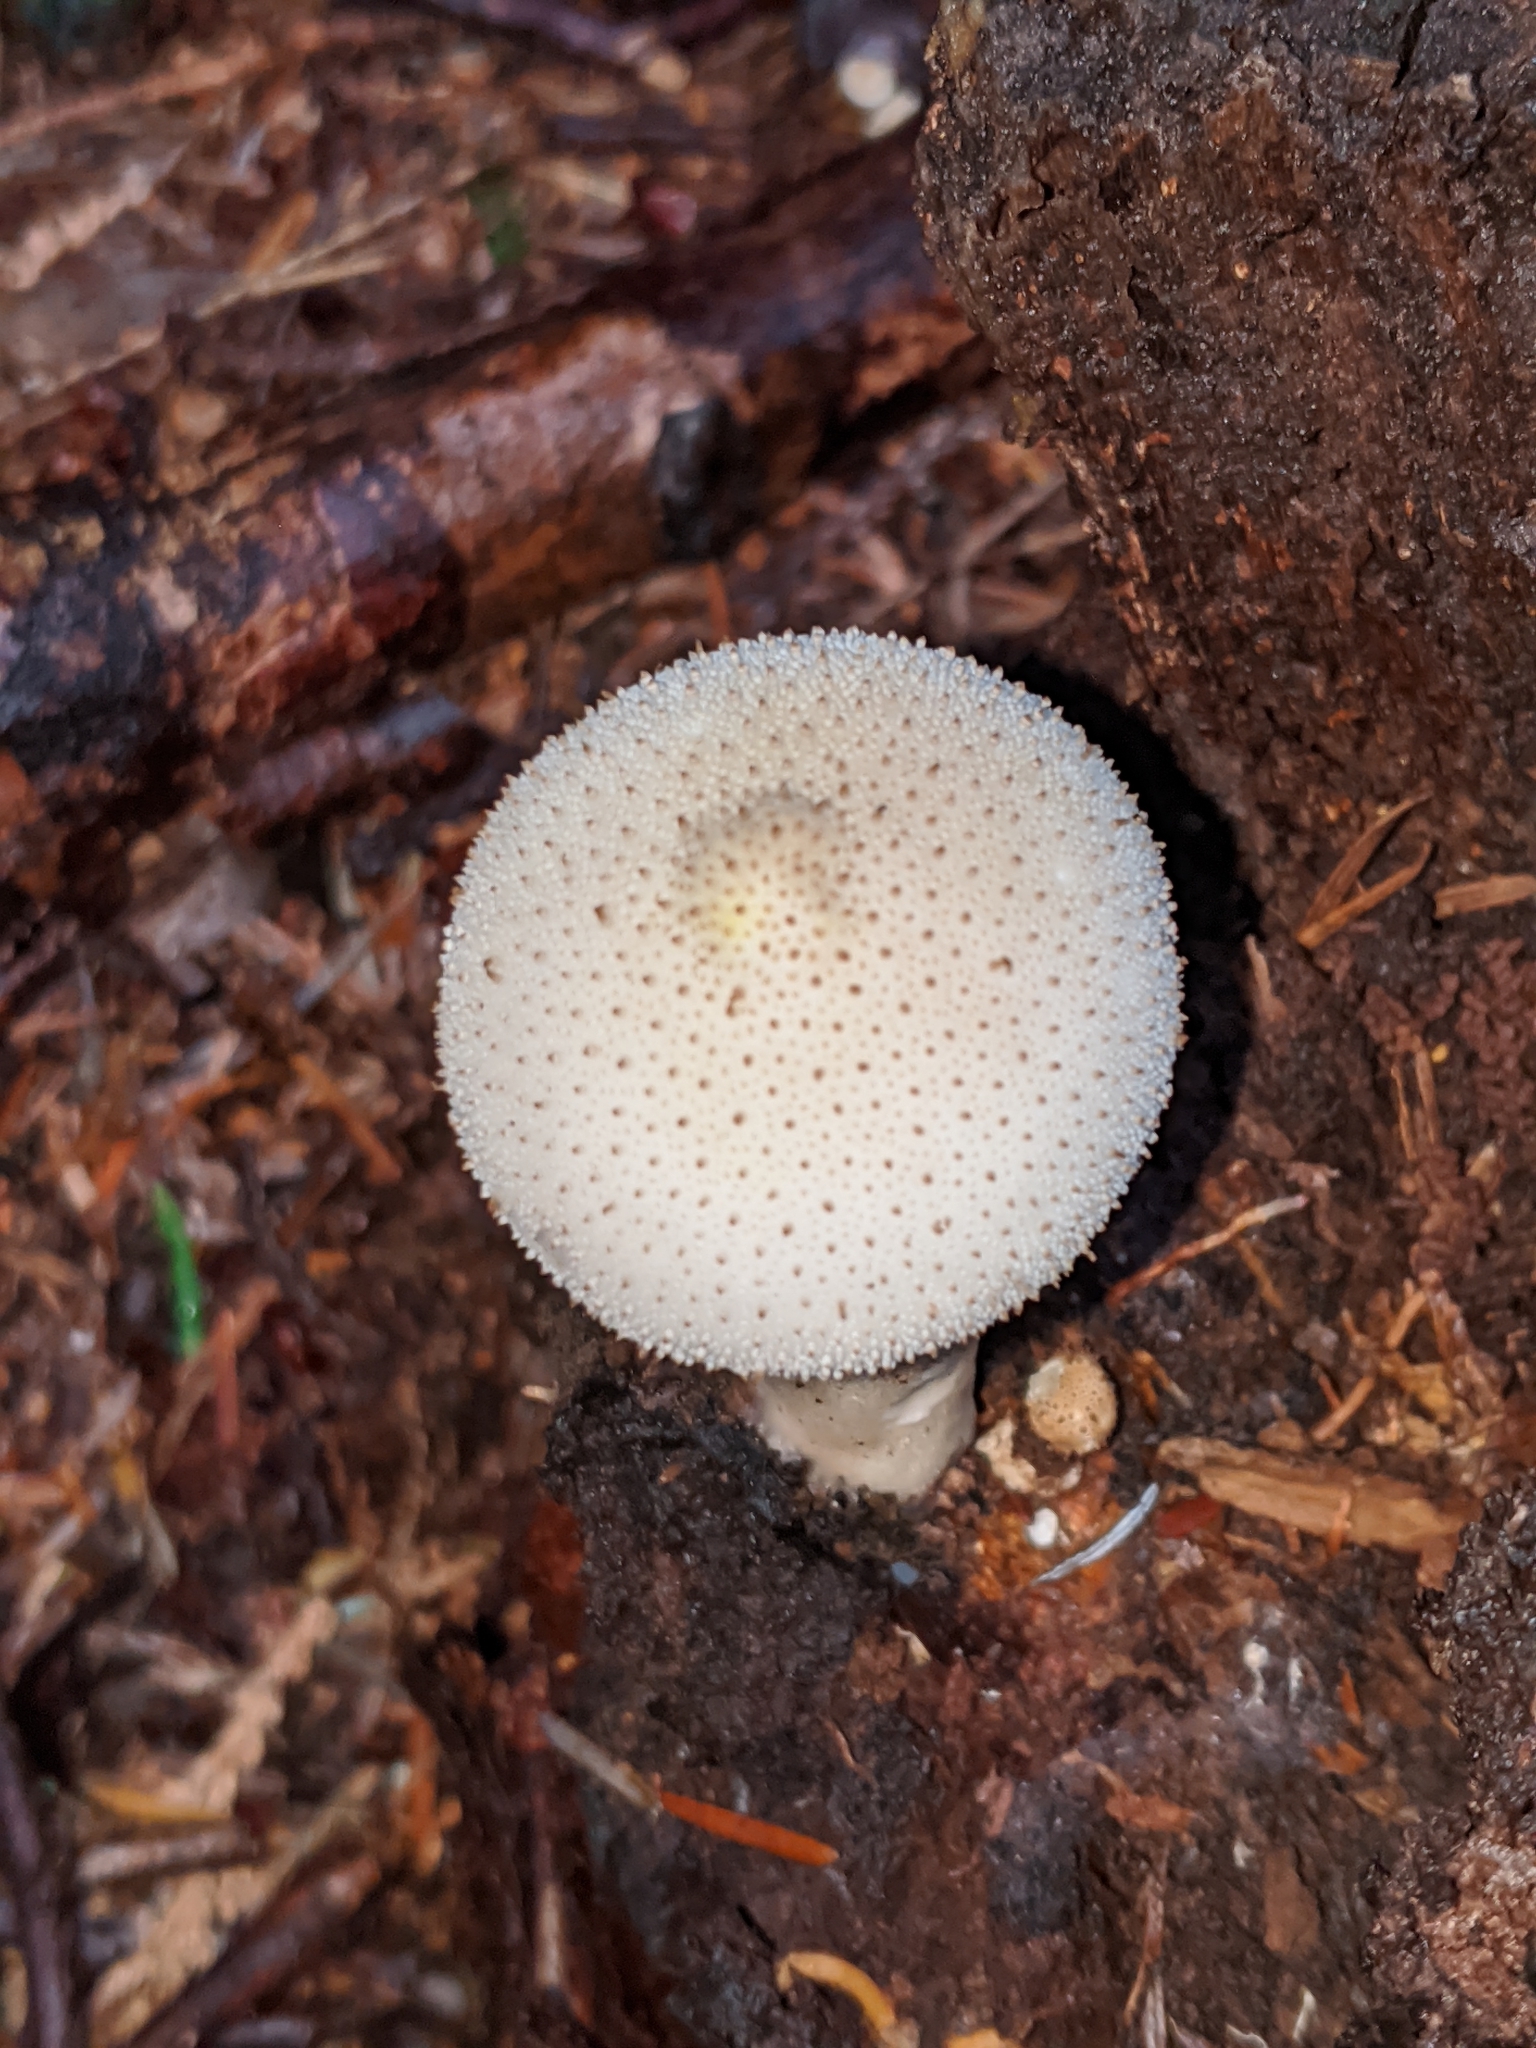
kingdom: Fungi
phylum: Basidiomycota
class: Agaricomycetes
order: Agaricales
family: Lycoperdaceae
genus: Lycoperdon
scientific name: Lycoperdon perlatum
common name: Common puffball
